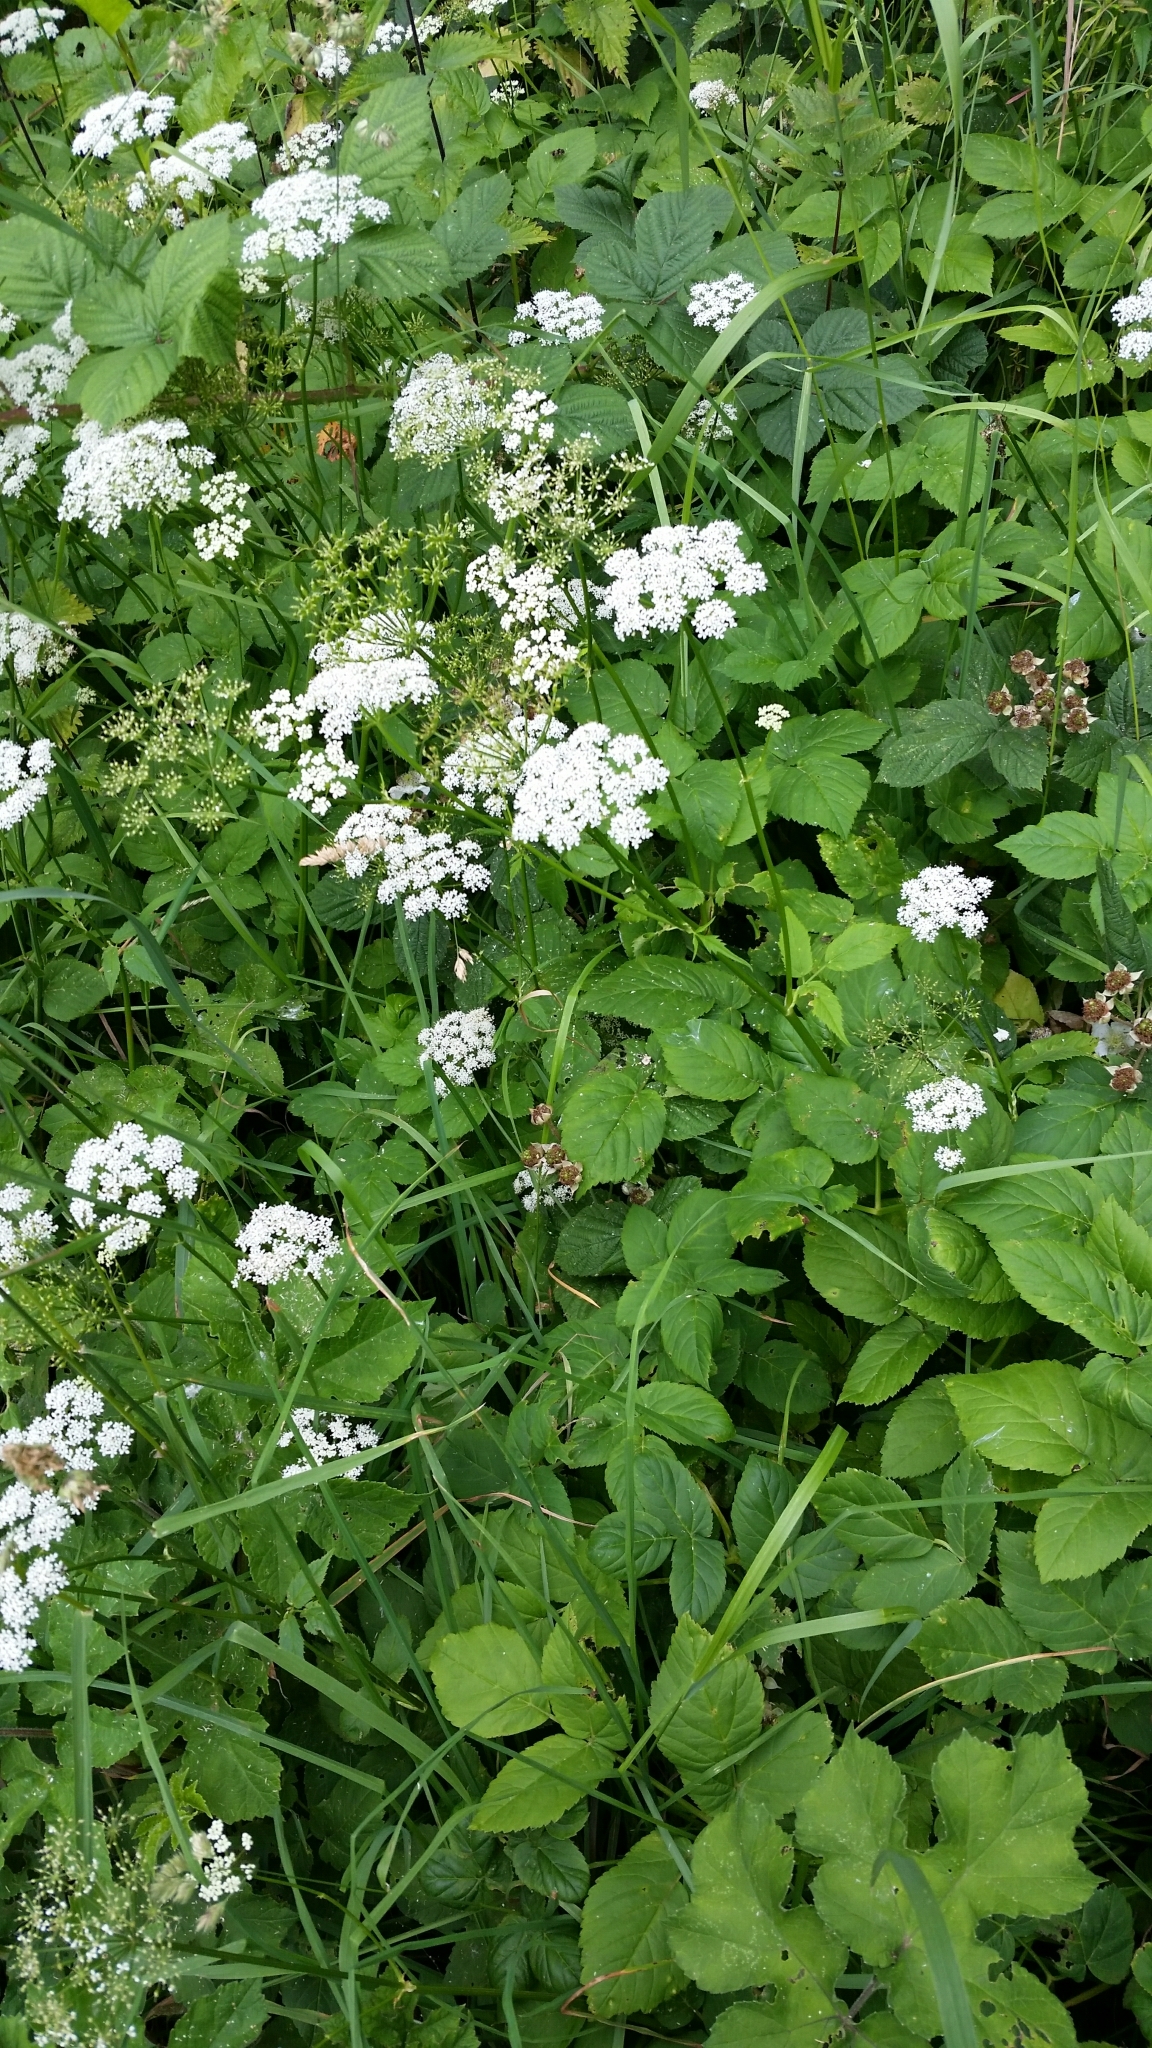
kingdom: Plantae
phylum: Tracheophyta
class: Magnoliopsida
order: Apiales
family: Apiaceae
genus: Aegopodium
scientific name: Aegopodium podagraria
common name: Ground-elder
